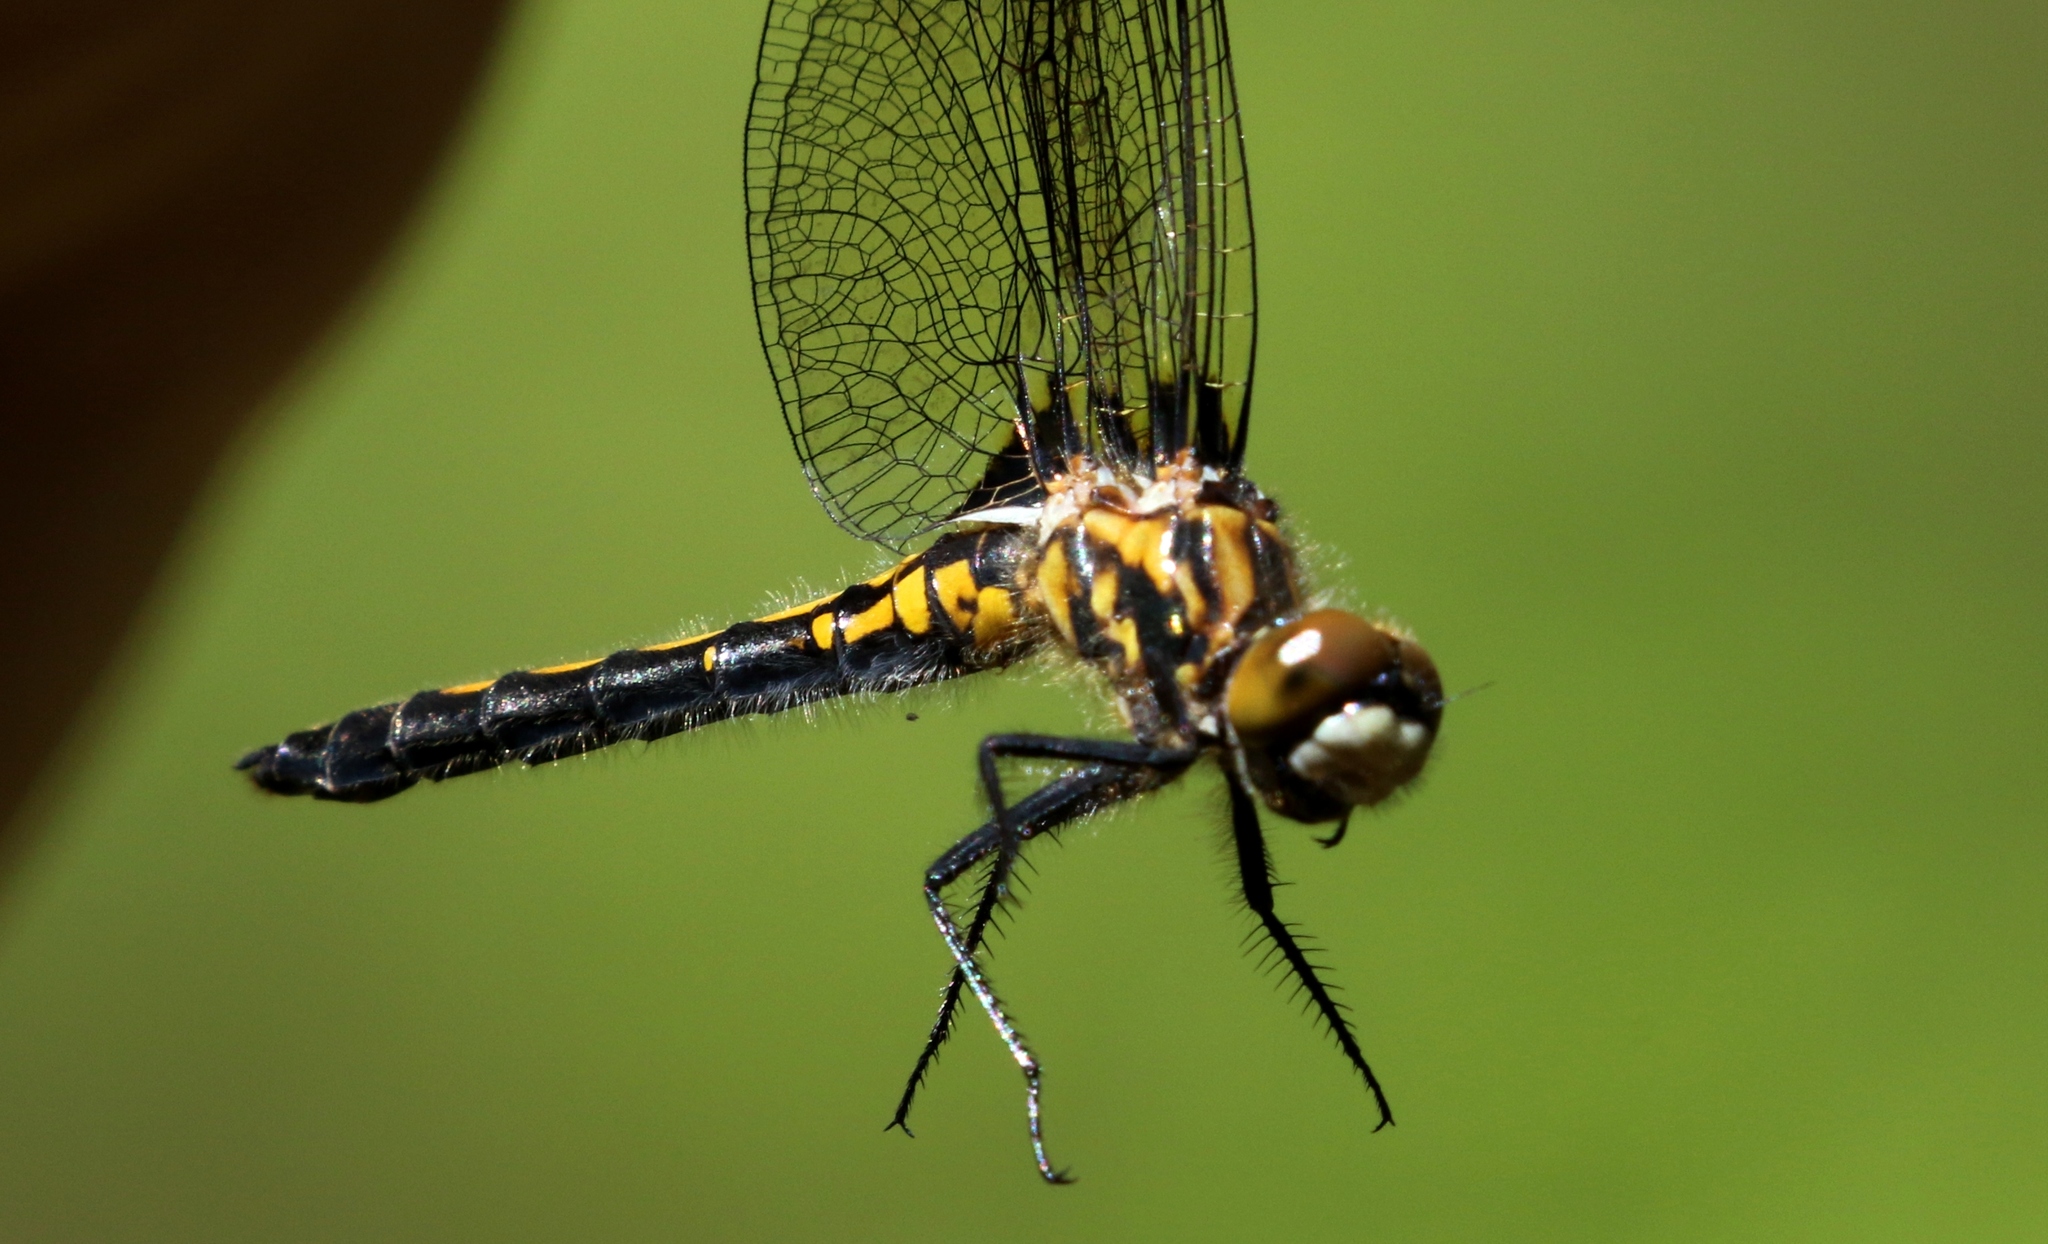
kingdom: Animalia
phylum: Arthropoda
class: Insecta
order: Odonata
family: Libellulidae
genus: Leucorrhinia
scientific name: Leucorrhinia hudsonica
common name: Hudsonian whiteface
